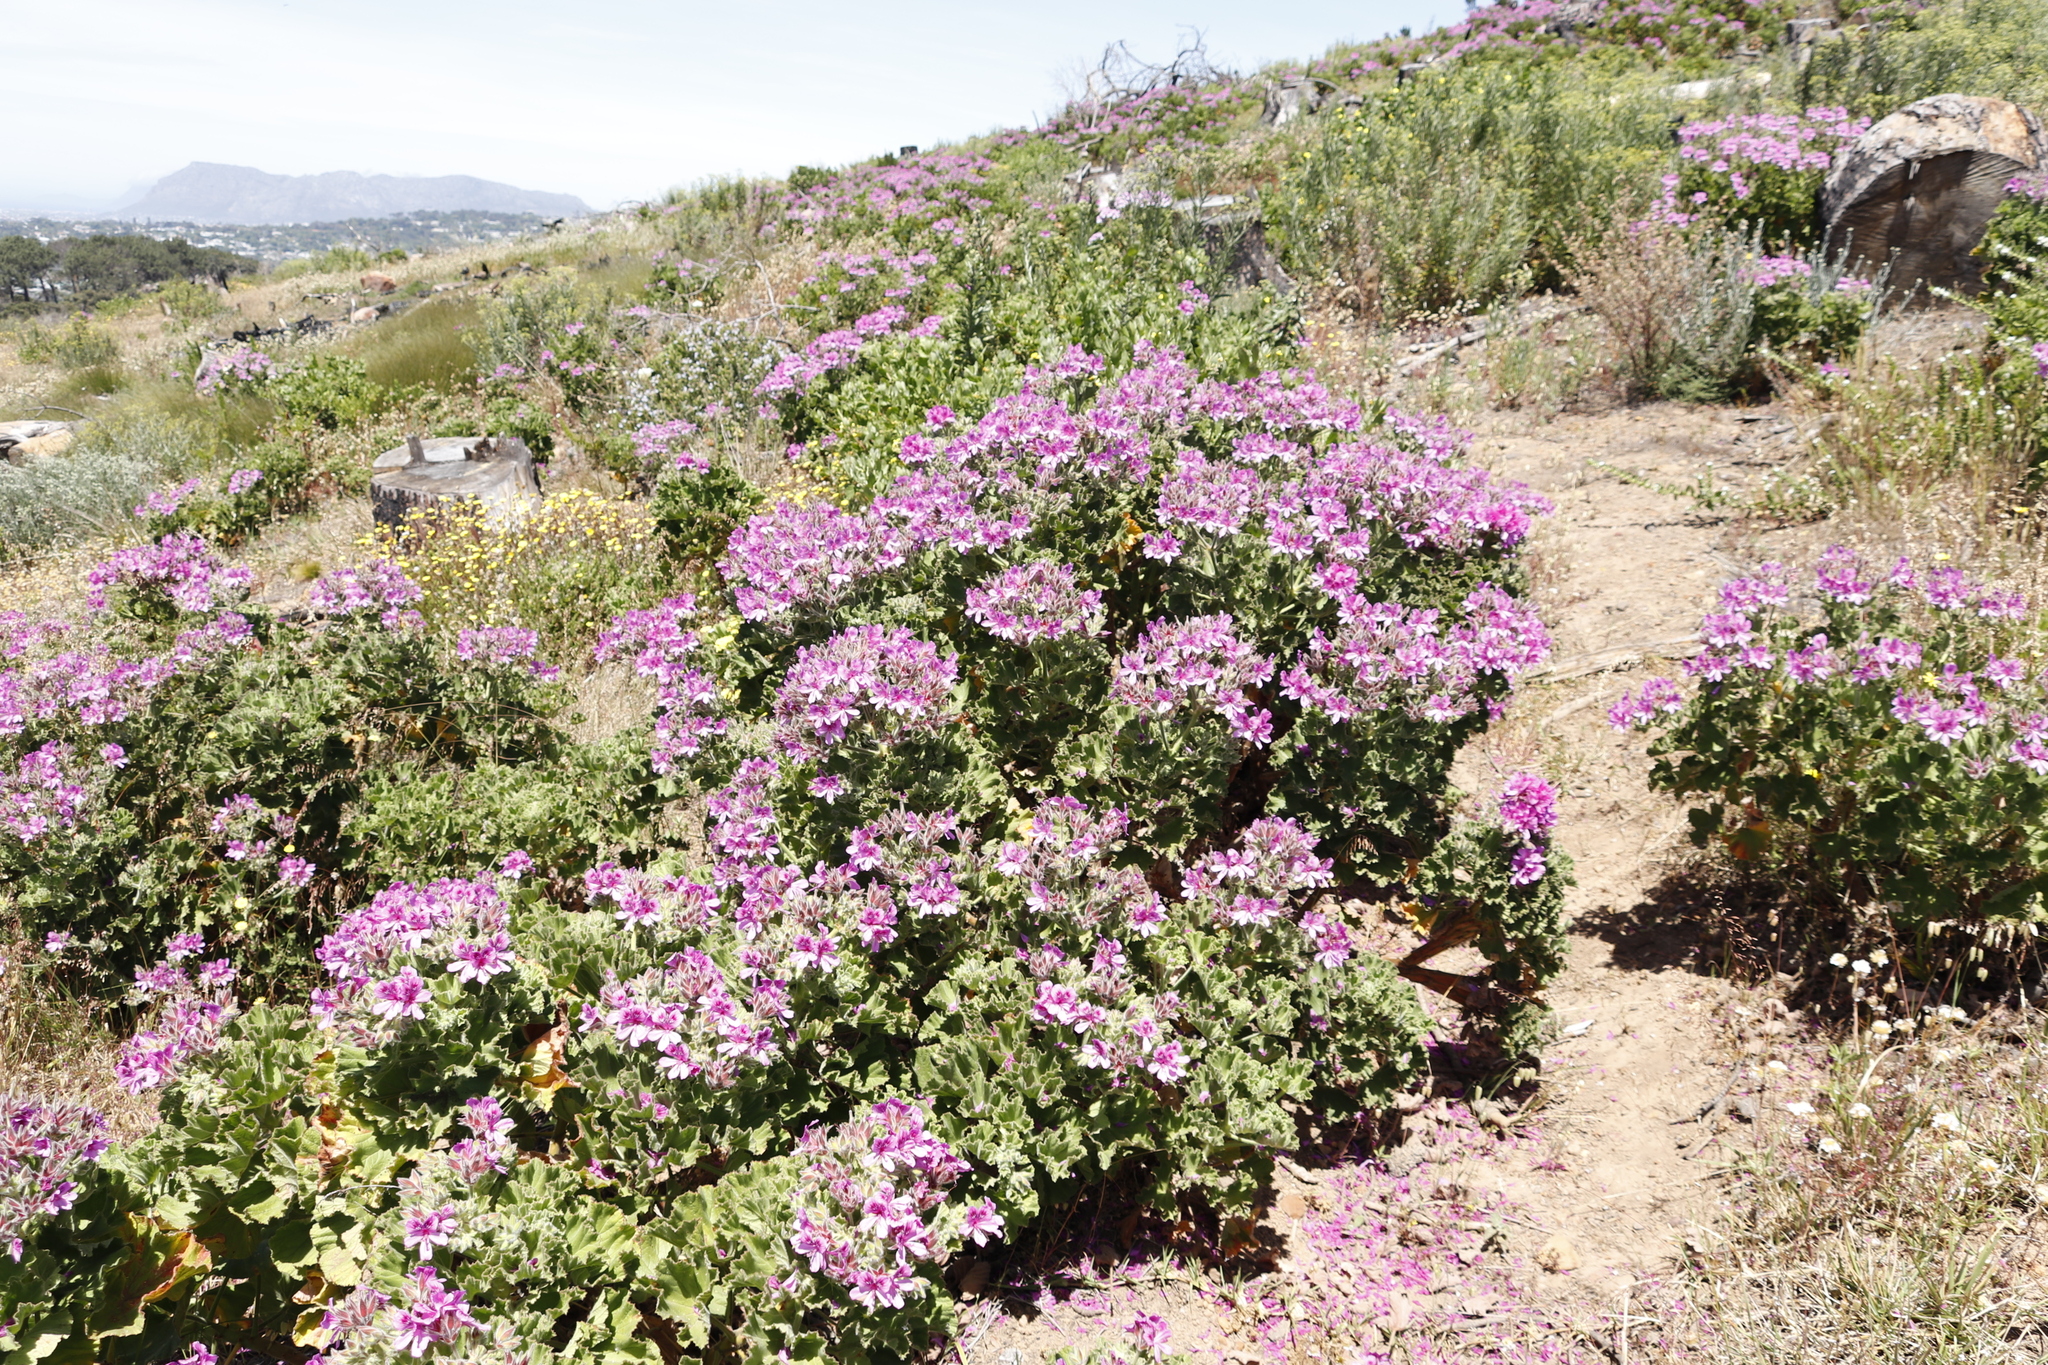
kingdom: Plantae
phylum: Tracheophyta
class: Magnoliopsida
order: Geraniales
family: Geraniaceae
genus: Pelargonium
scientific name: Pelargonium cucullatum
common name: Tree pelargonium
